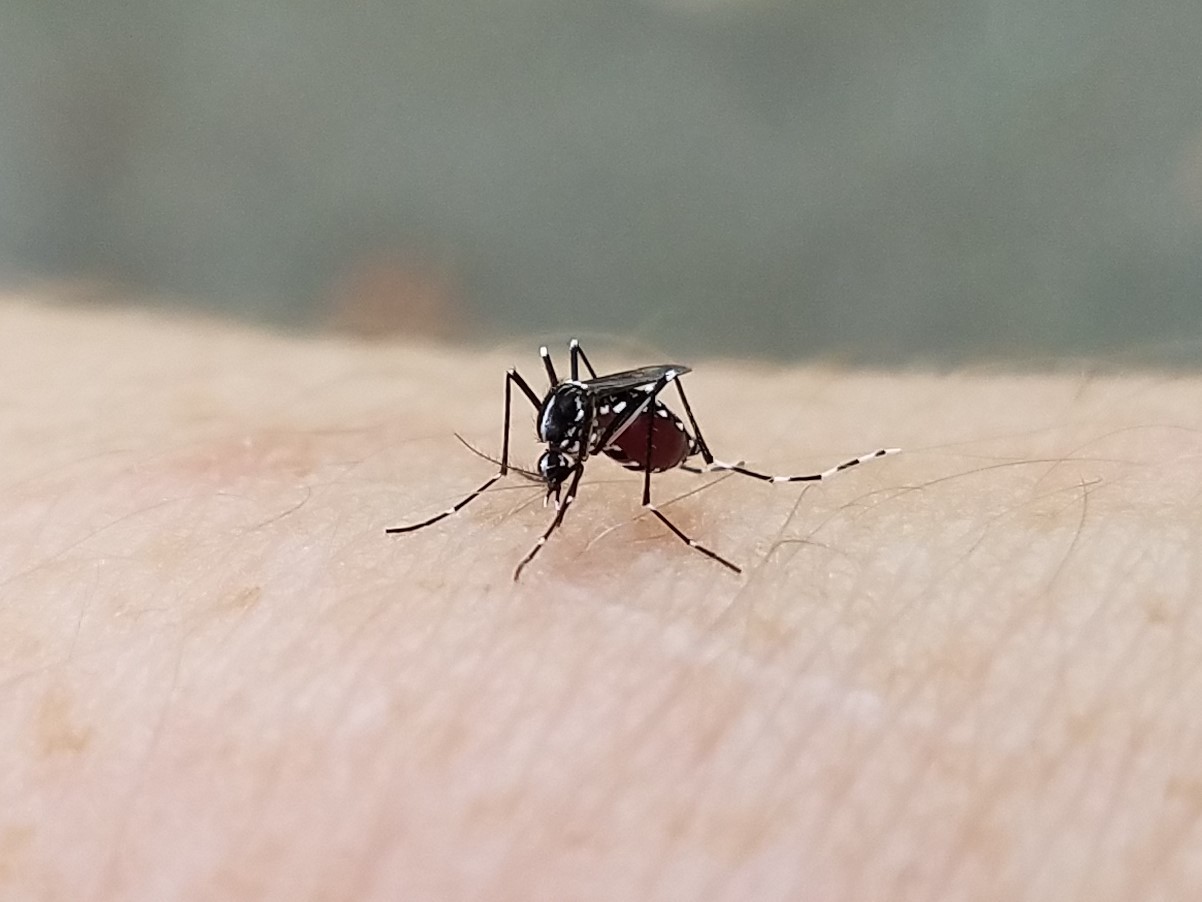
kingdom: Animalia
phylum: Arthropoda
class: Insecta
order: Diptera
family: Culicidae
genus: Aedes
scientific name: Aedes albopictus
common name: Tiger mosquito
